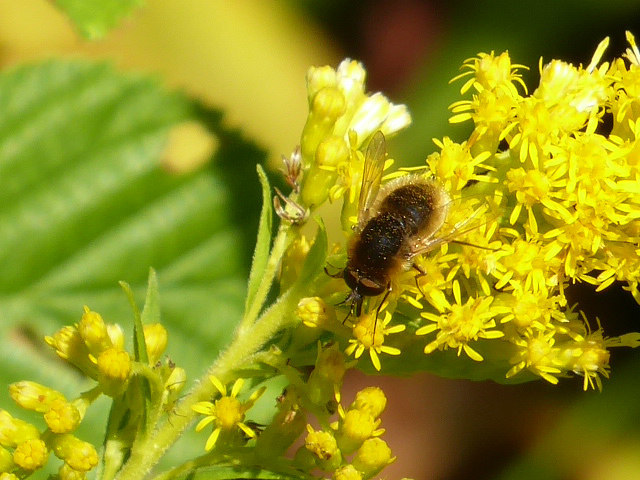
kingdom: Animalia
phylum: Arthropoda
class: Insecta
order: Diptera
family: Bombyliidae
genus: Sparnopolius
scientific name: Sparnopolius confusus
